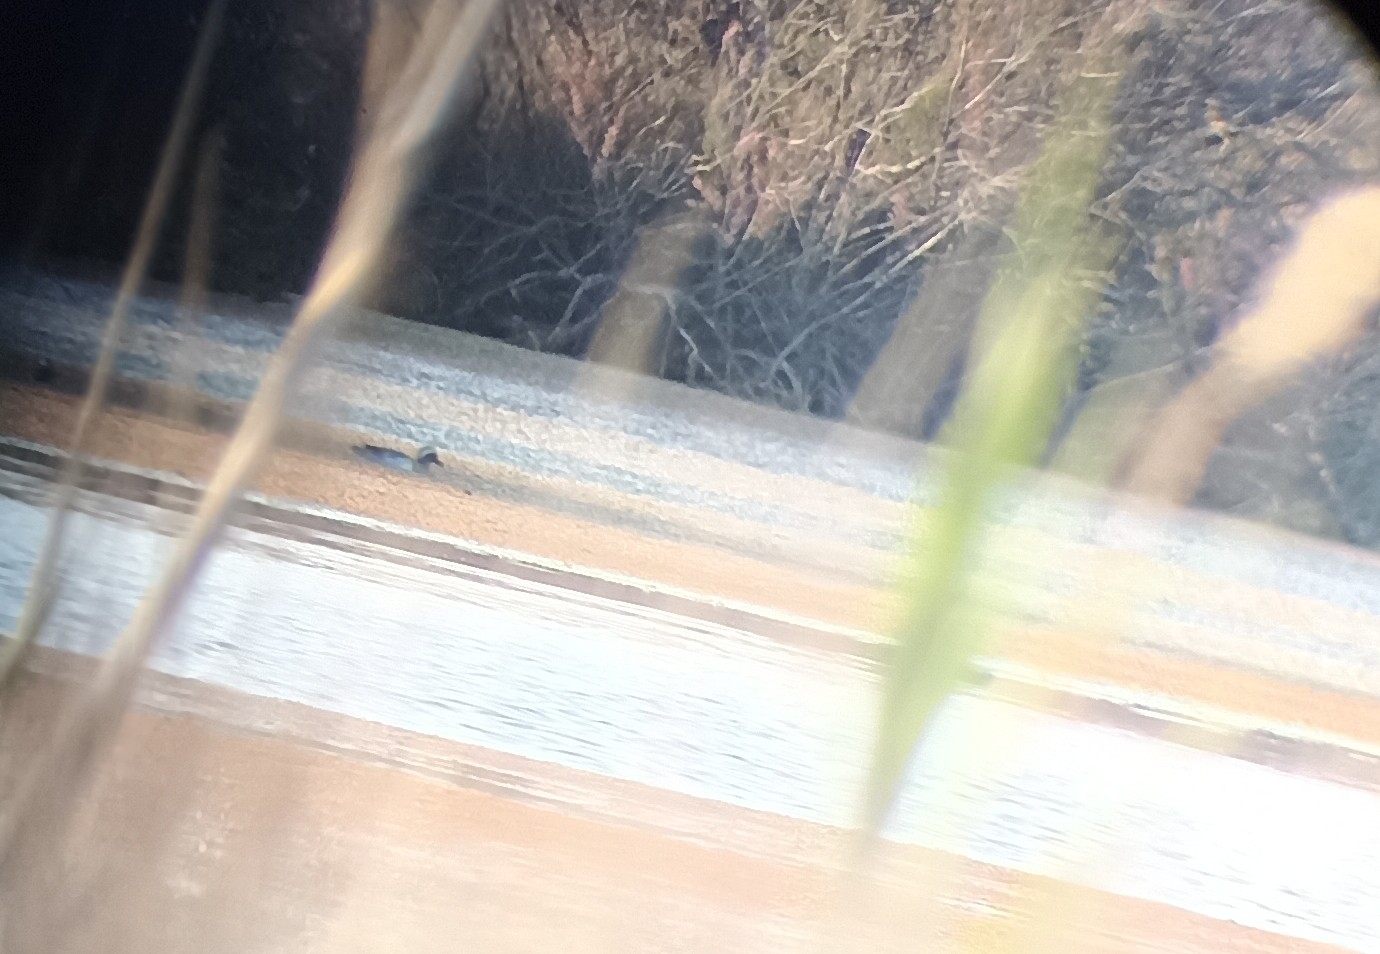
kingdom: Animalia
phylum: Chordata
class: Aves
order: Anseriformes
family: Anatidae
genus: Spatula
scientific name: Spatula querquedula
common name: Garganey
